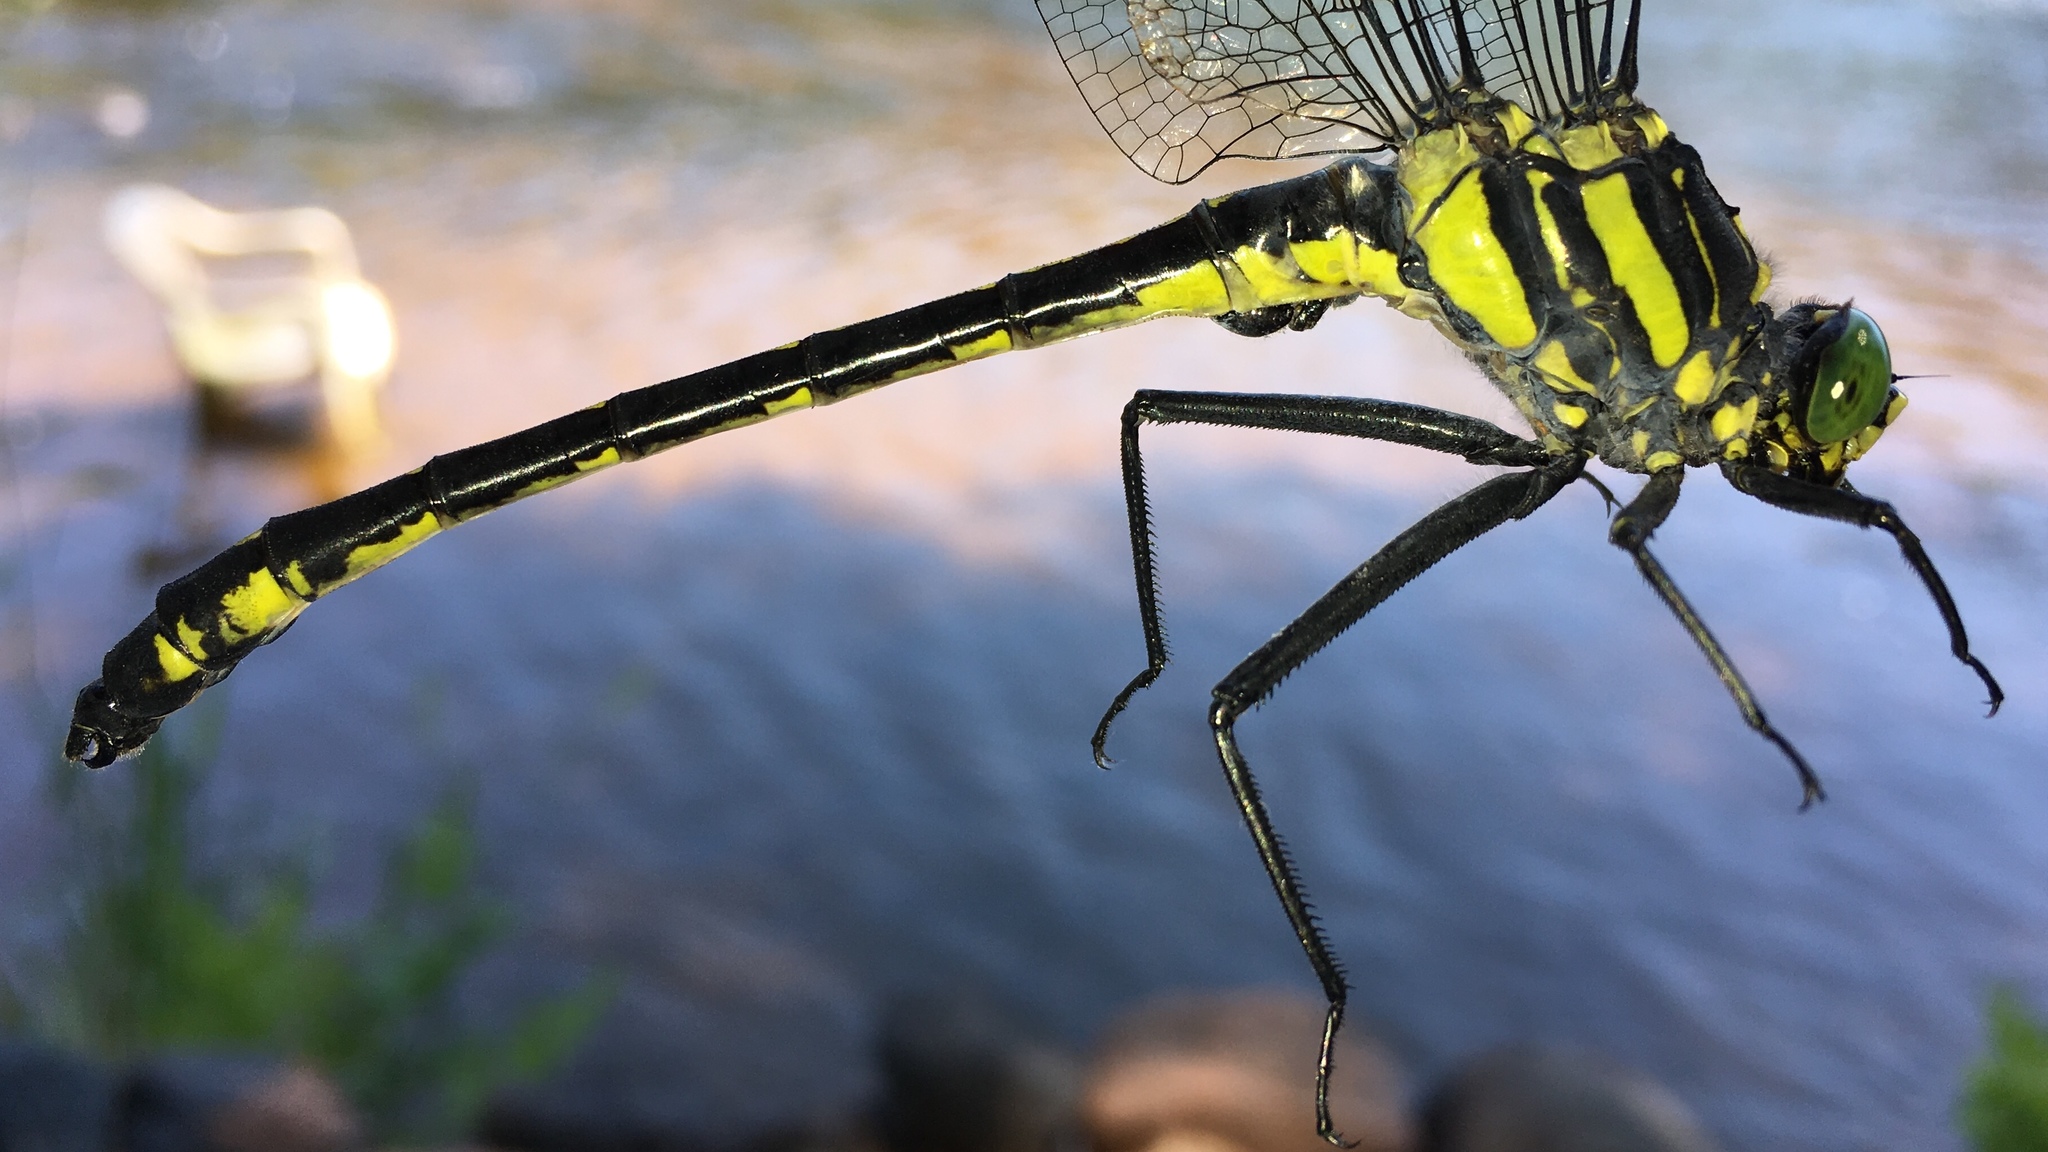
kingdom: Animalia
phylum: Arthropoda
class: Insecta
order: Odonata
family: Gomphidae
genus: Hagenius
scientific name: Hagenius brevistylus
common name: Dragonhunter
